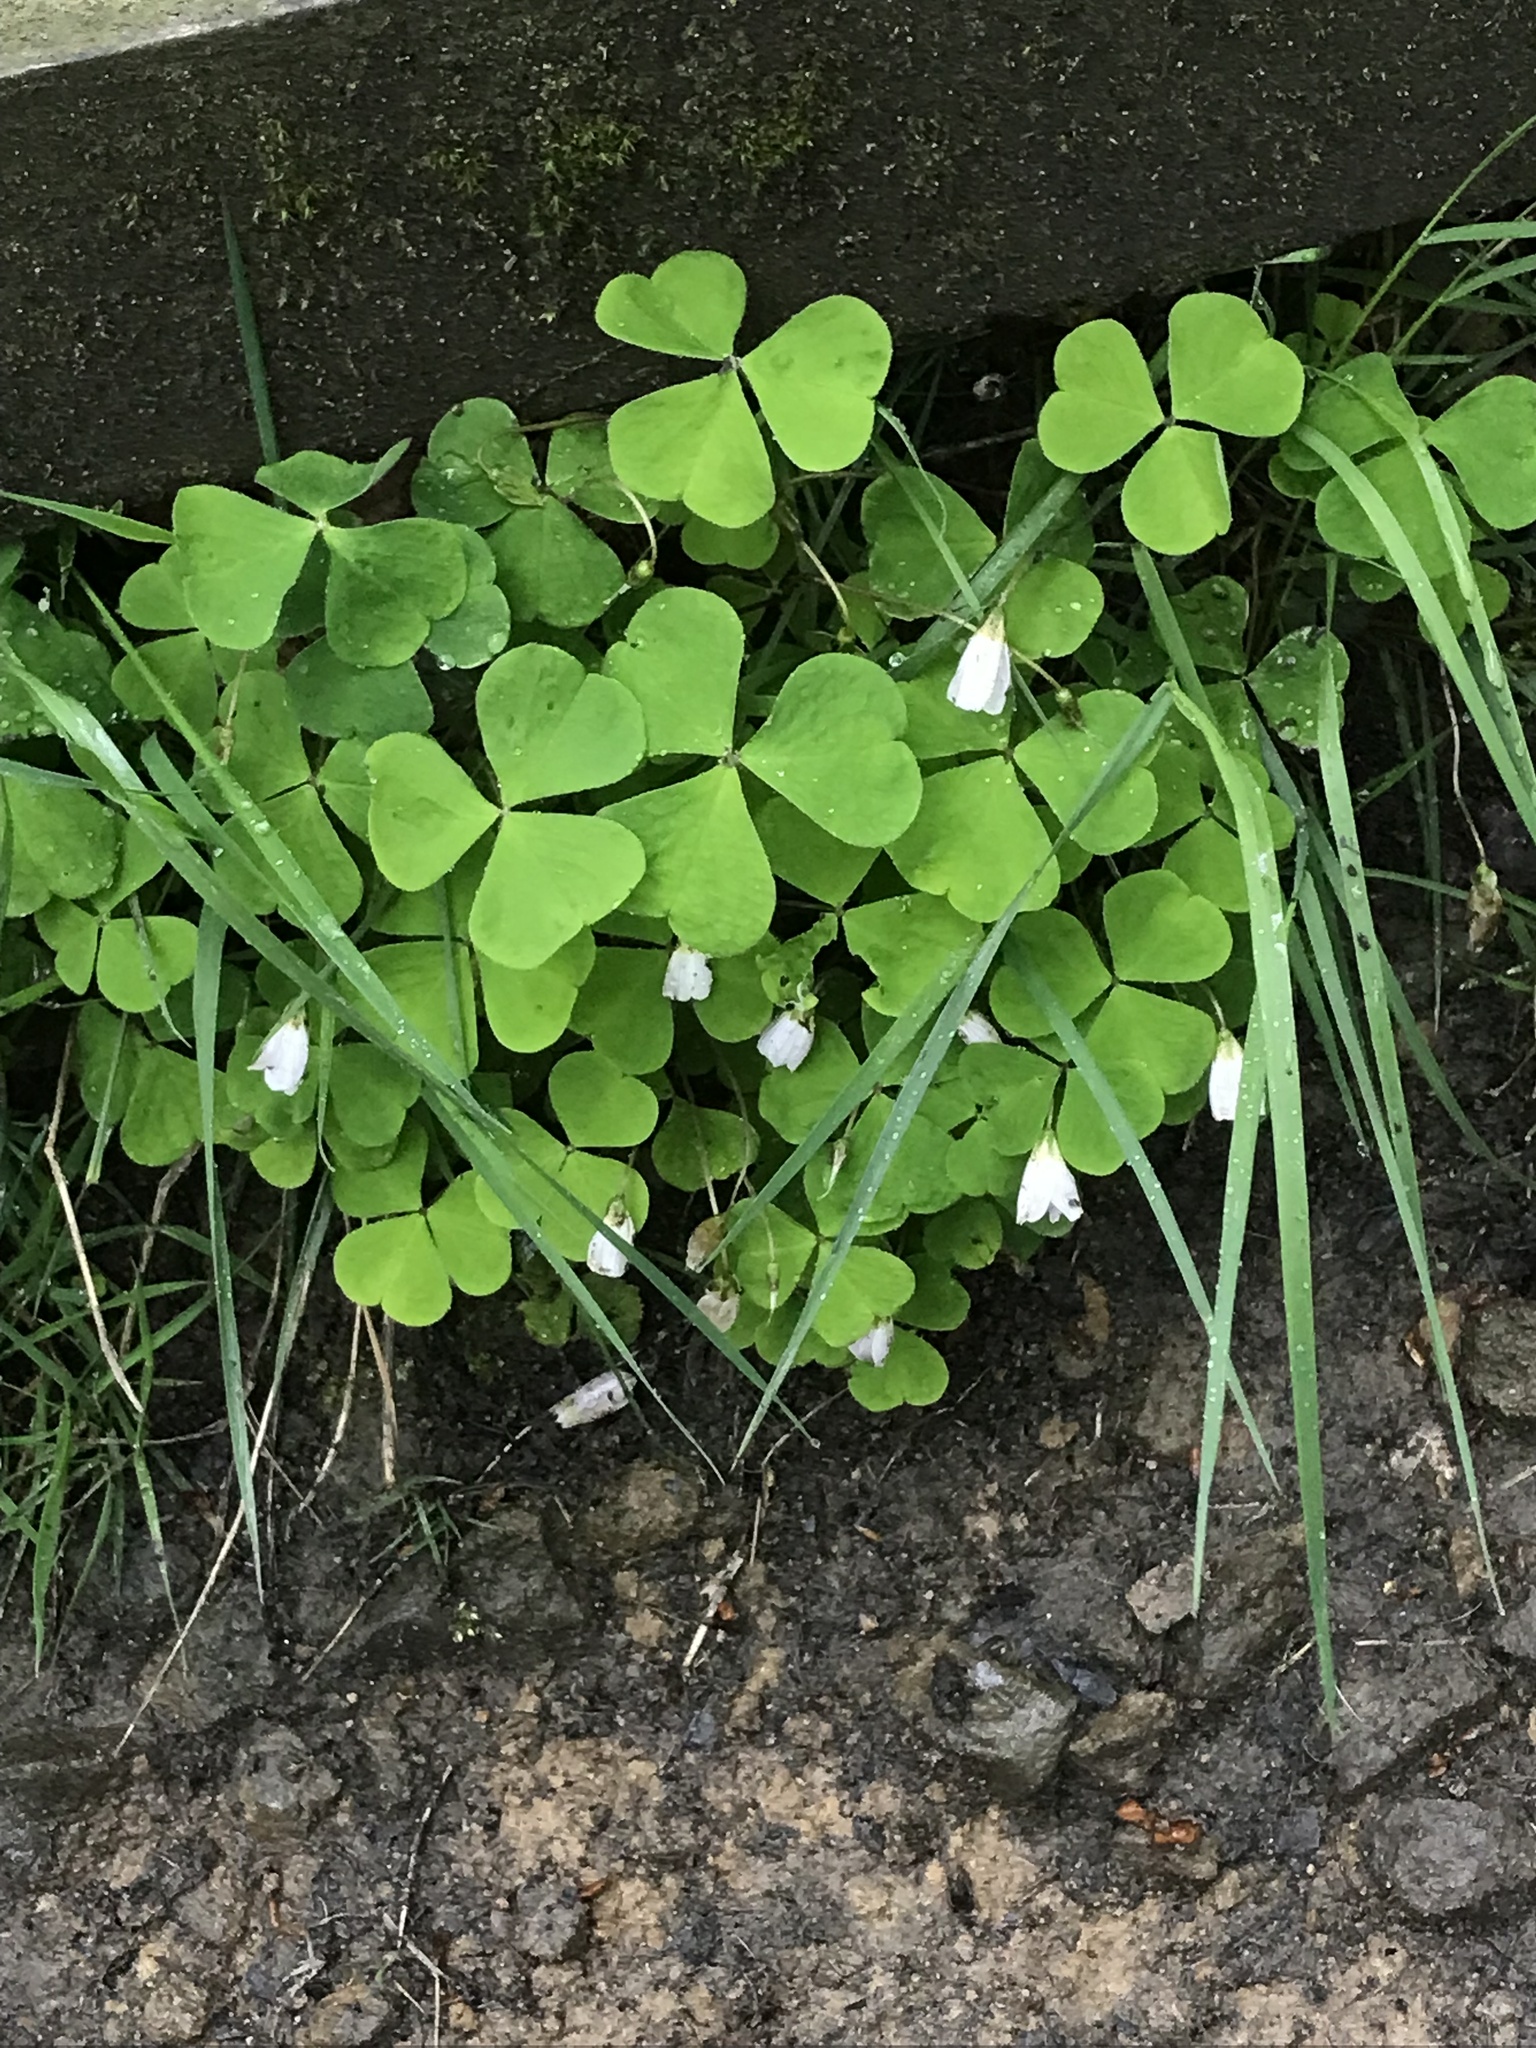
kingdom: Plantae
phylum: Tracheophyta
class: Magnoliopsida
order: Oxalidales
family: Oxalidaceae
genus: Oxalis
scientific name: Oxalis acetosella
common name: Wood-sorrel
